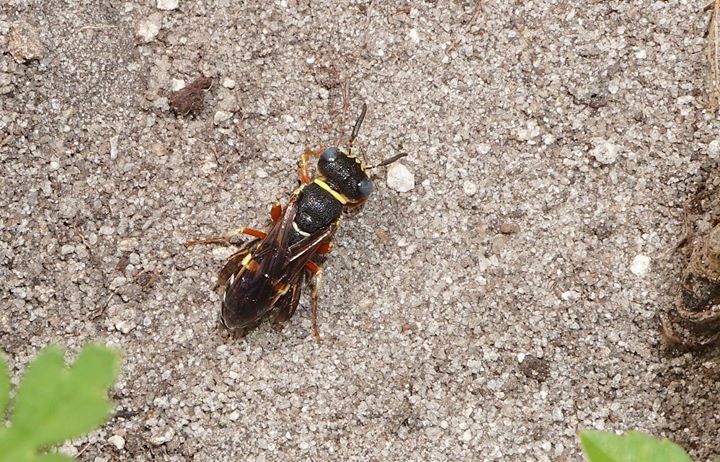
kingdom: Animalia
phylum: Arthropoda
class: Insecta
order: Hymenoptera
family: Crabronidae
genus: Philanthus
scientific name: Philanthus ventilabris
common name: Bee-killer wasp
